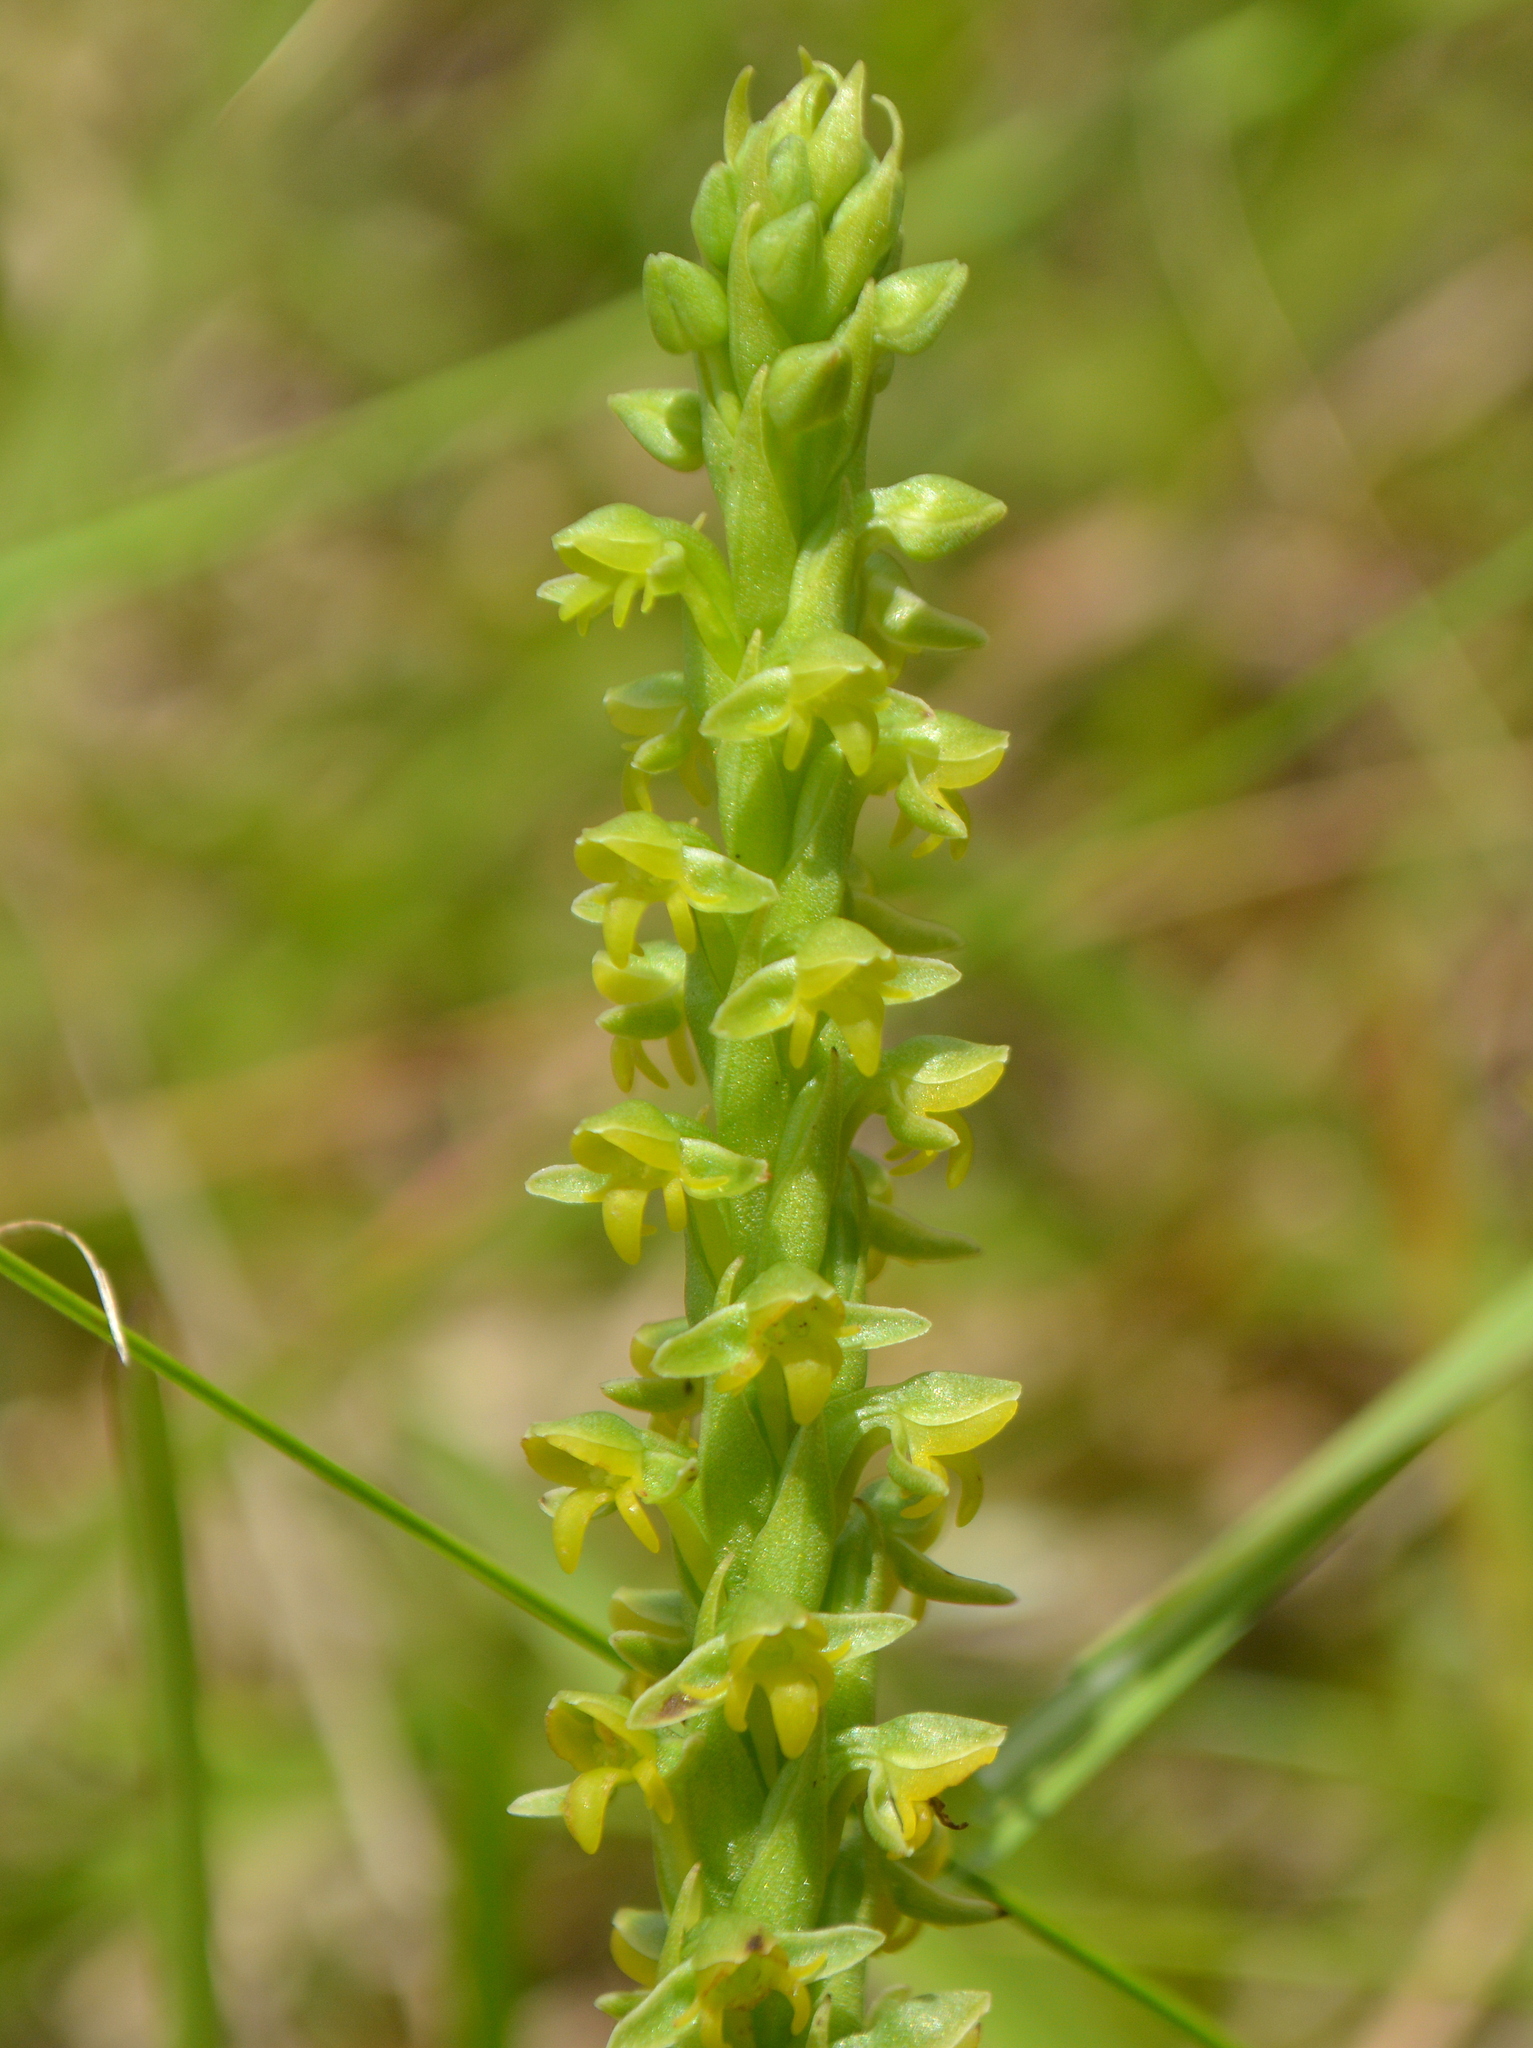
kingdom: Plantae
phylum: Tracheophyta
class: Liliopsida
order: Asparagales
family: Orchidaceae
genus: Habenaria
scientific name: Habenaria parviflora
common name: Small flowered habenaria
